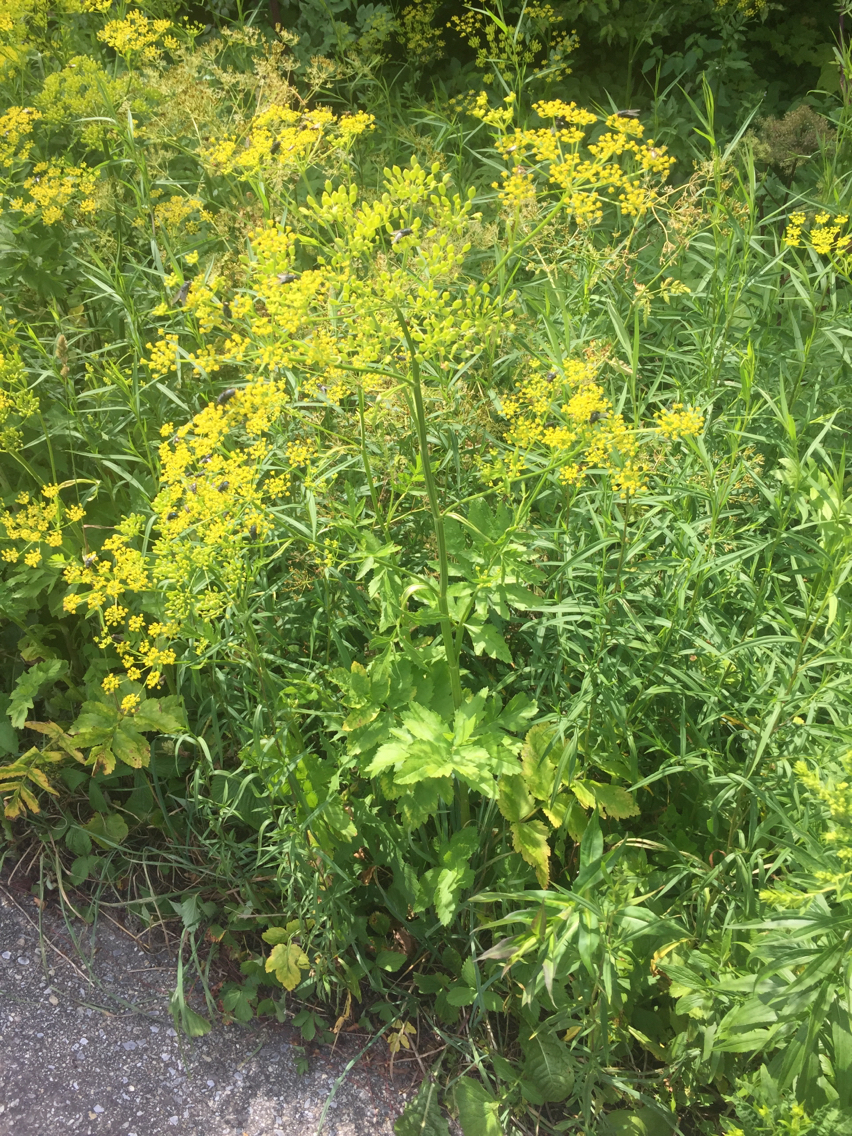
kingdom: Plantae
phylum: Tracheophyta
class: Magnoliopsida
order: Apiales
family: Apiaceae
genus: Pastinaca
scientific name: Pastinaca sativa
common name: Wild parsnip
